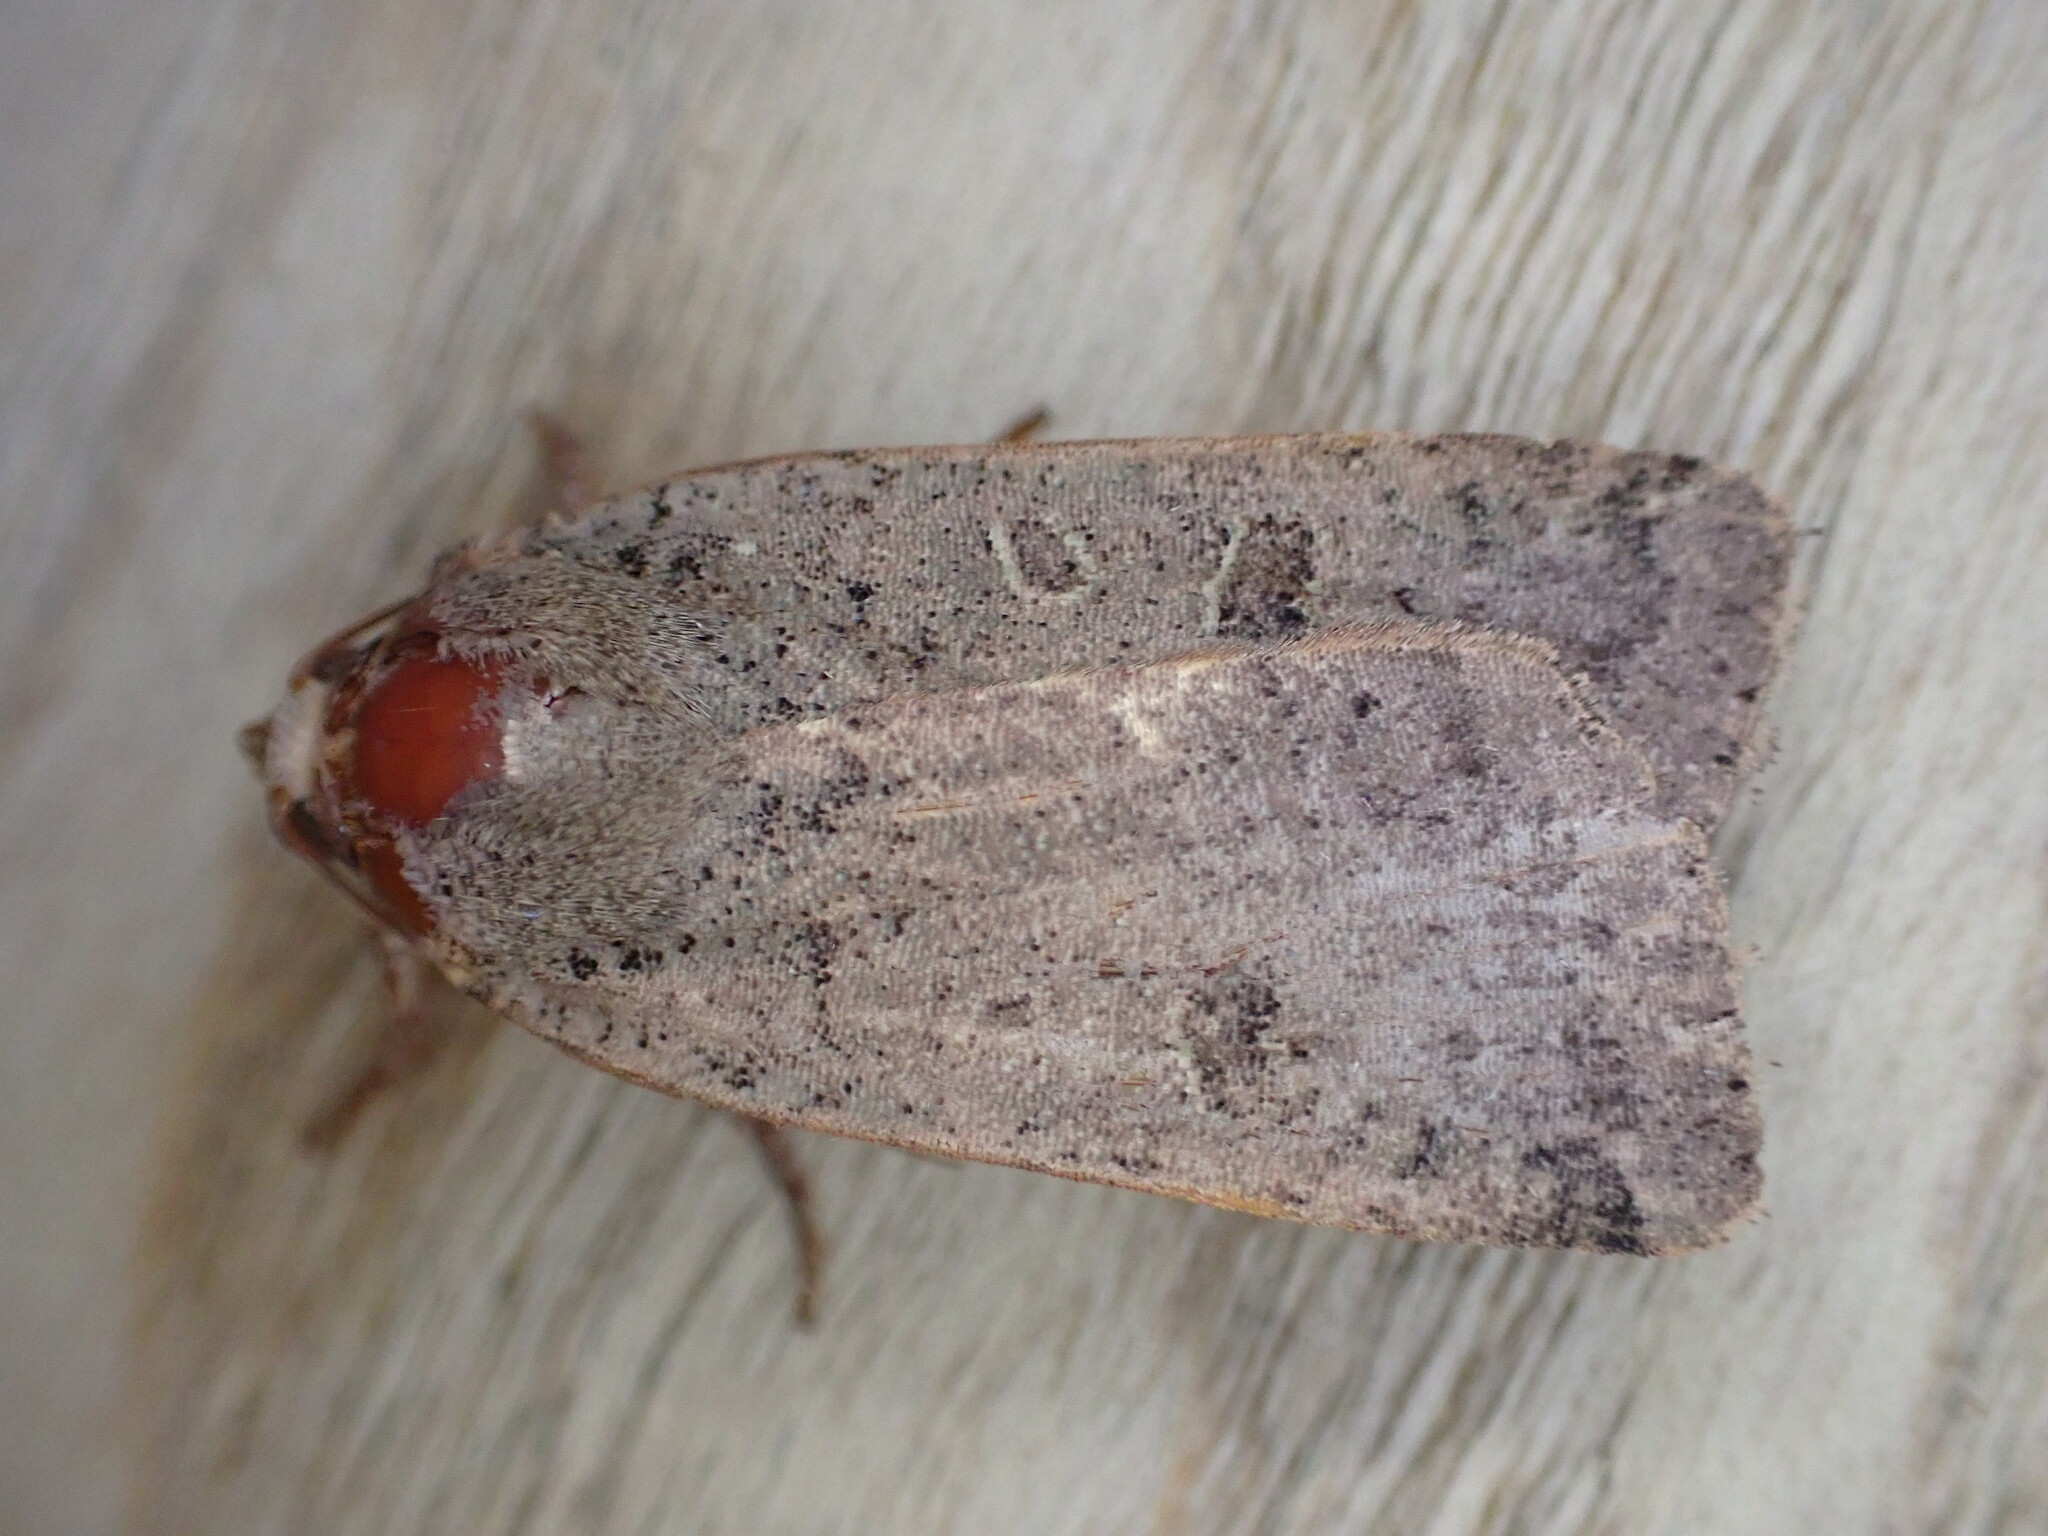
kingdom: Animalia
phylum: Arthropoda
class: Insecta
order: Lepidoptera
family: Noctuidae
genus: Noctua
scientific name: Noctua comes
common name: Lesser yellow underwing
